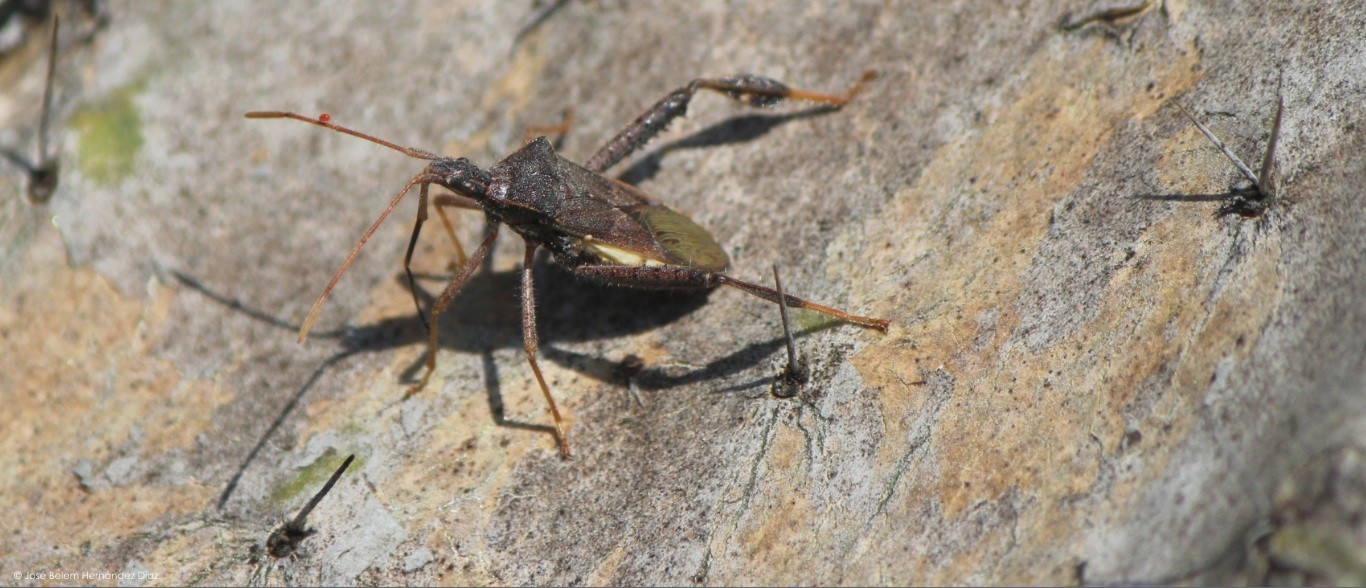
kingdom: Animalia
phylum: Arthropoda
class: Insecta
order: Hemiptera
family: Coreidae
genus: Narnia
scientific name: Narnia inornata
